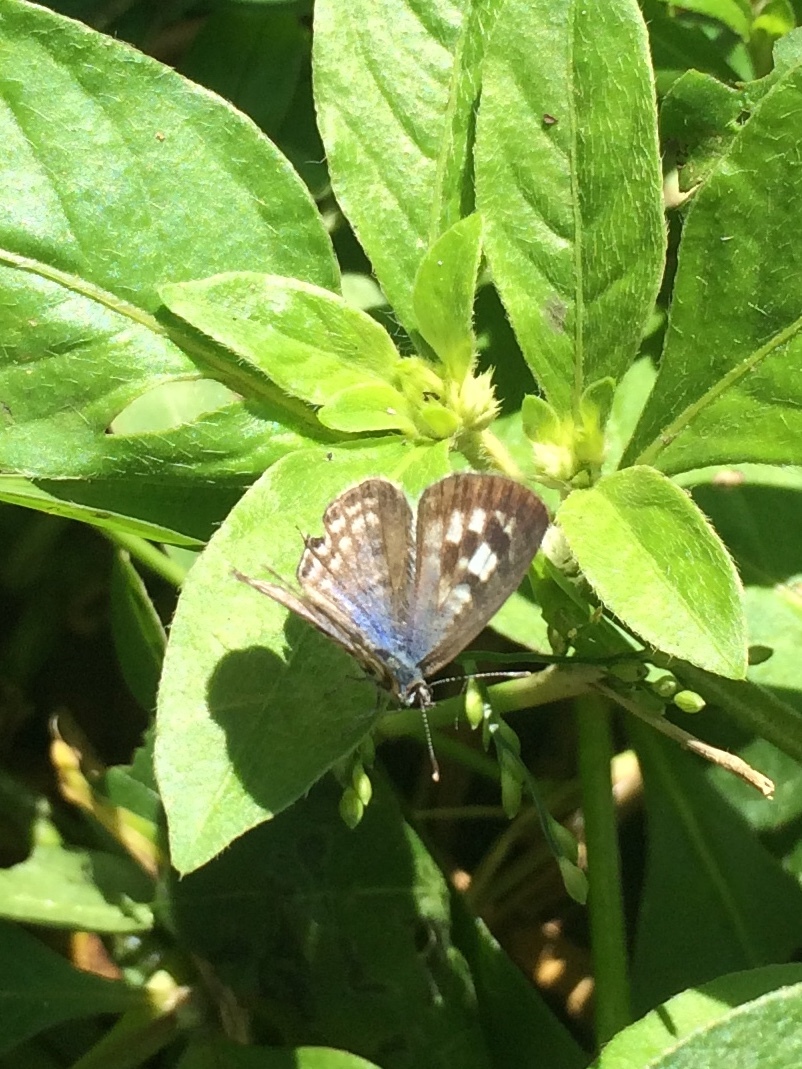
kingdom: Animalia
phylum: Arthropoda
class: Insecta
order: Lepidoptera
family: Lycaenidae
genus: Leptotes
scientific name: Leptotes plinius
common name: Zebra blue
